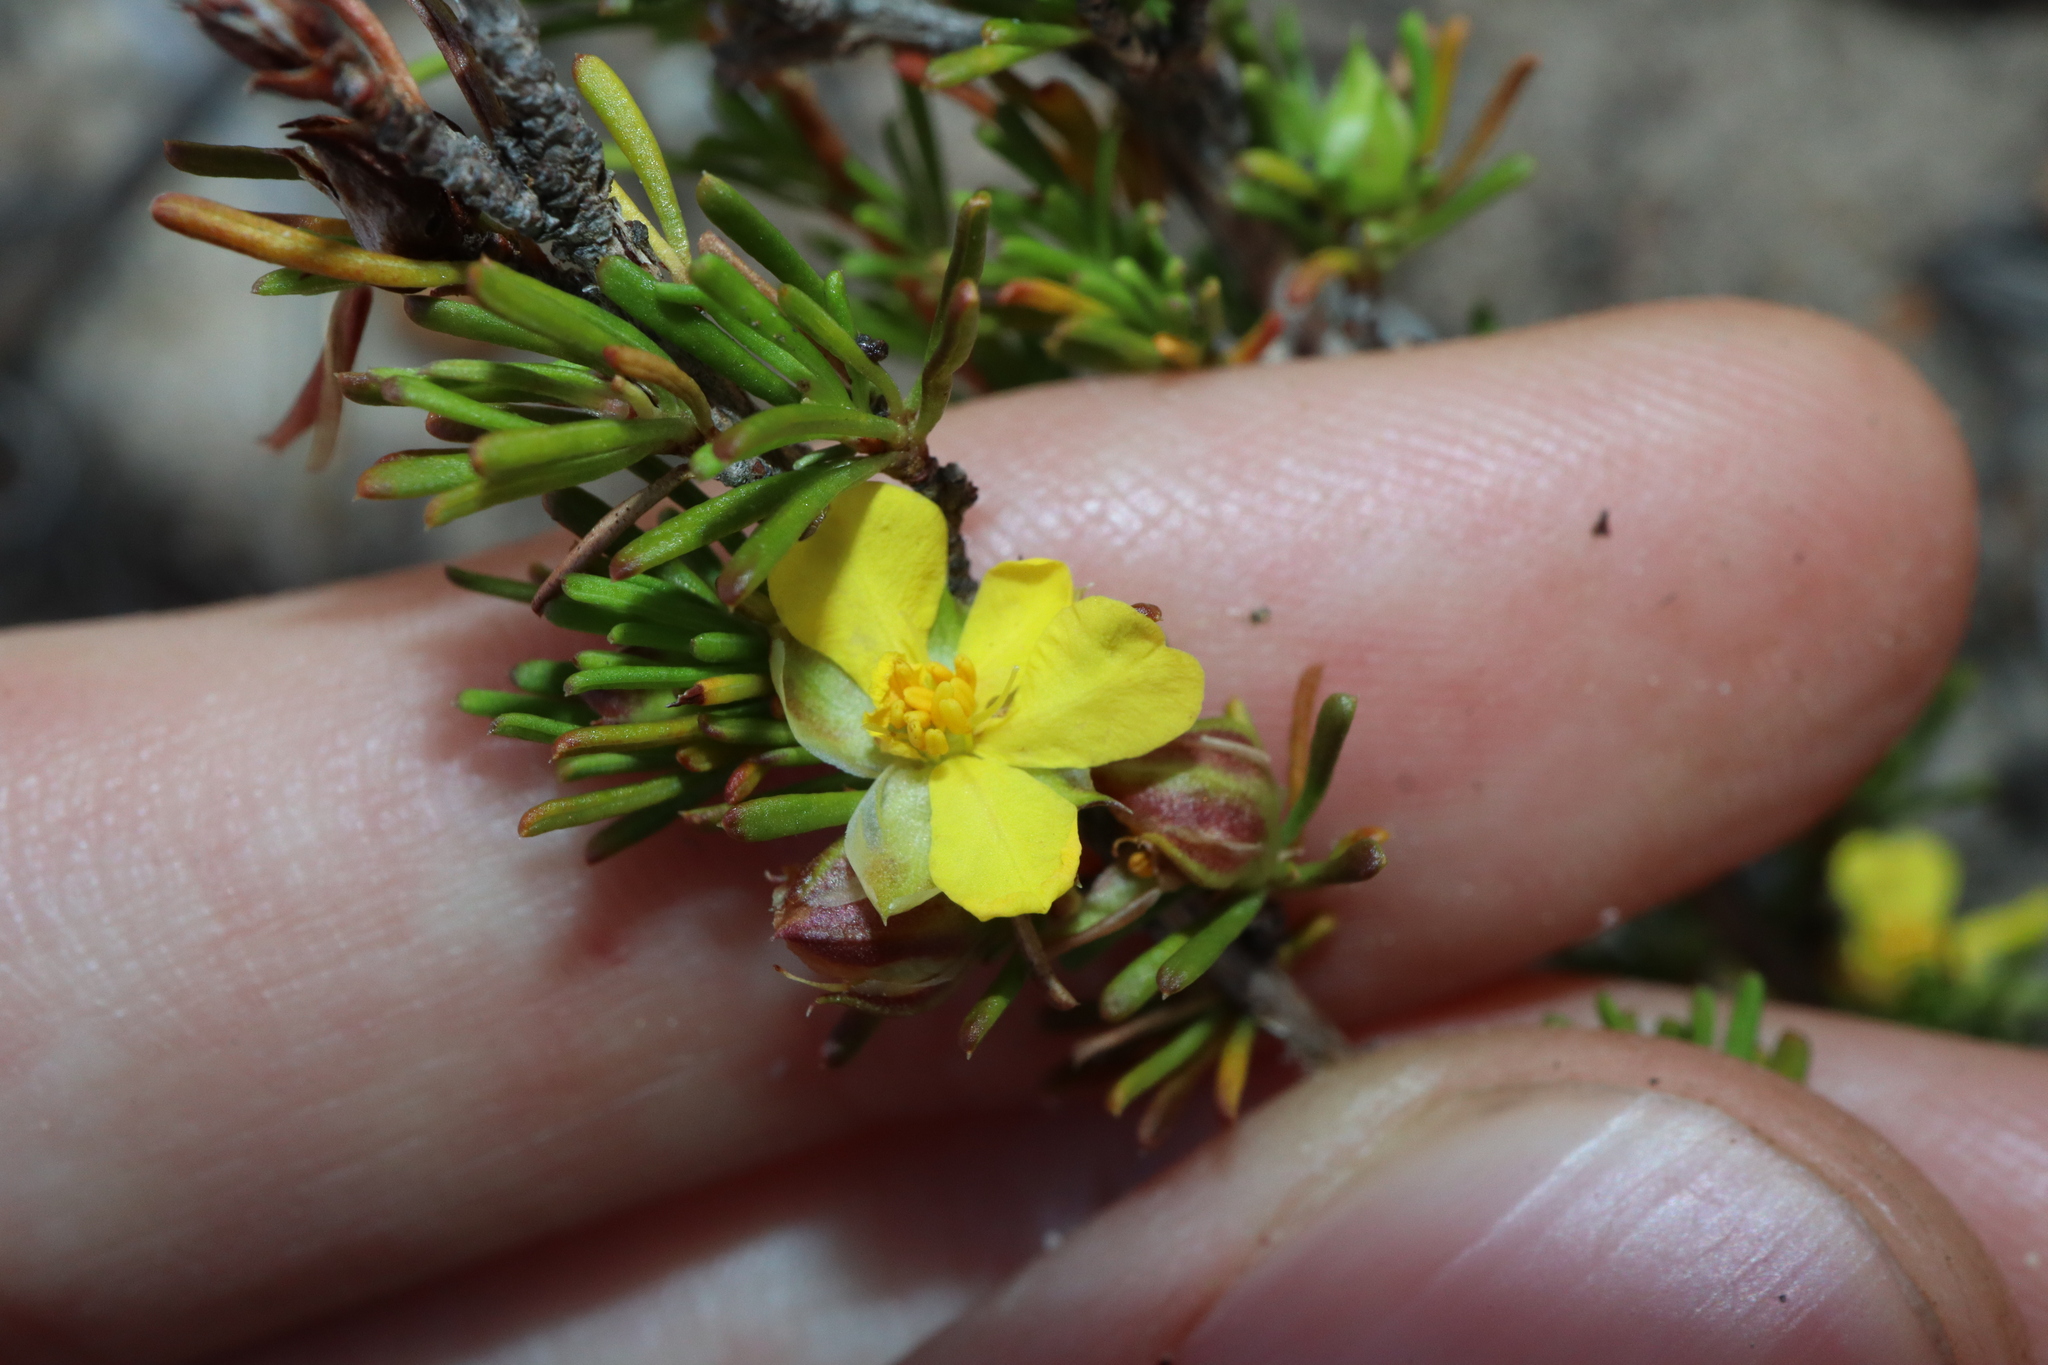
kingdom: Plantae
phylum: Tracheophyta
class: Magnoliopsida
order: Dilleniales
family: Dilleniaceae
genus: Hibbertia
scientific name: Hibbertia
